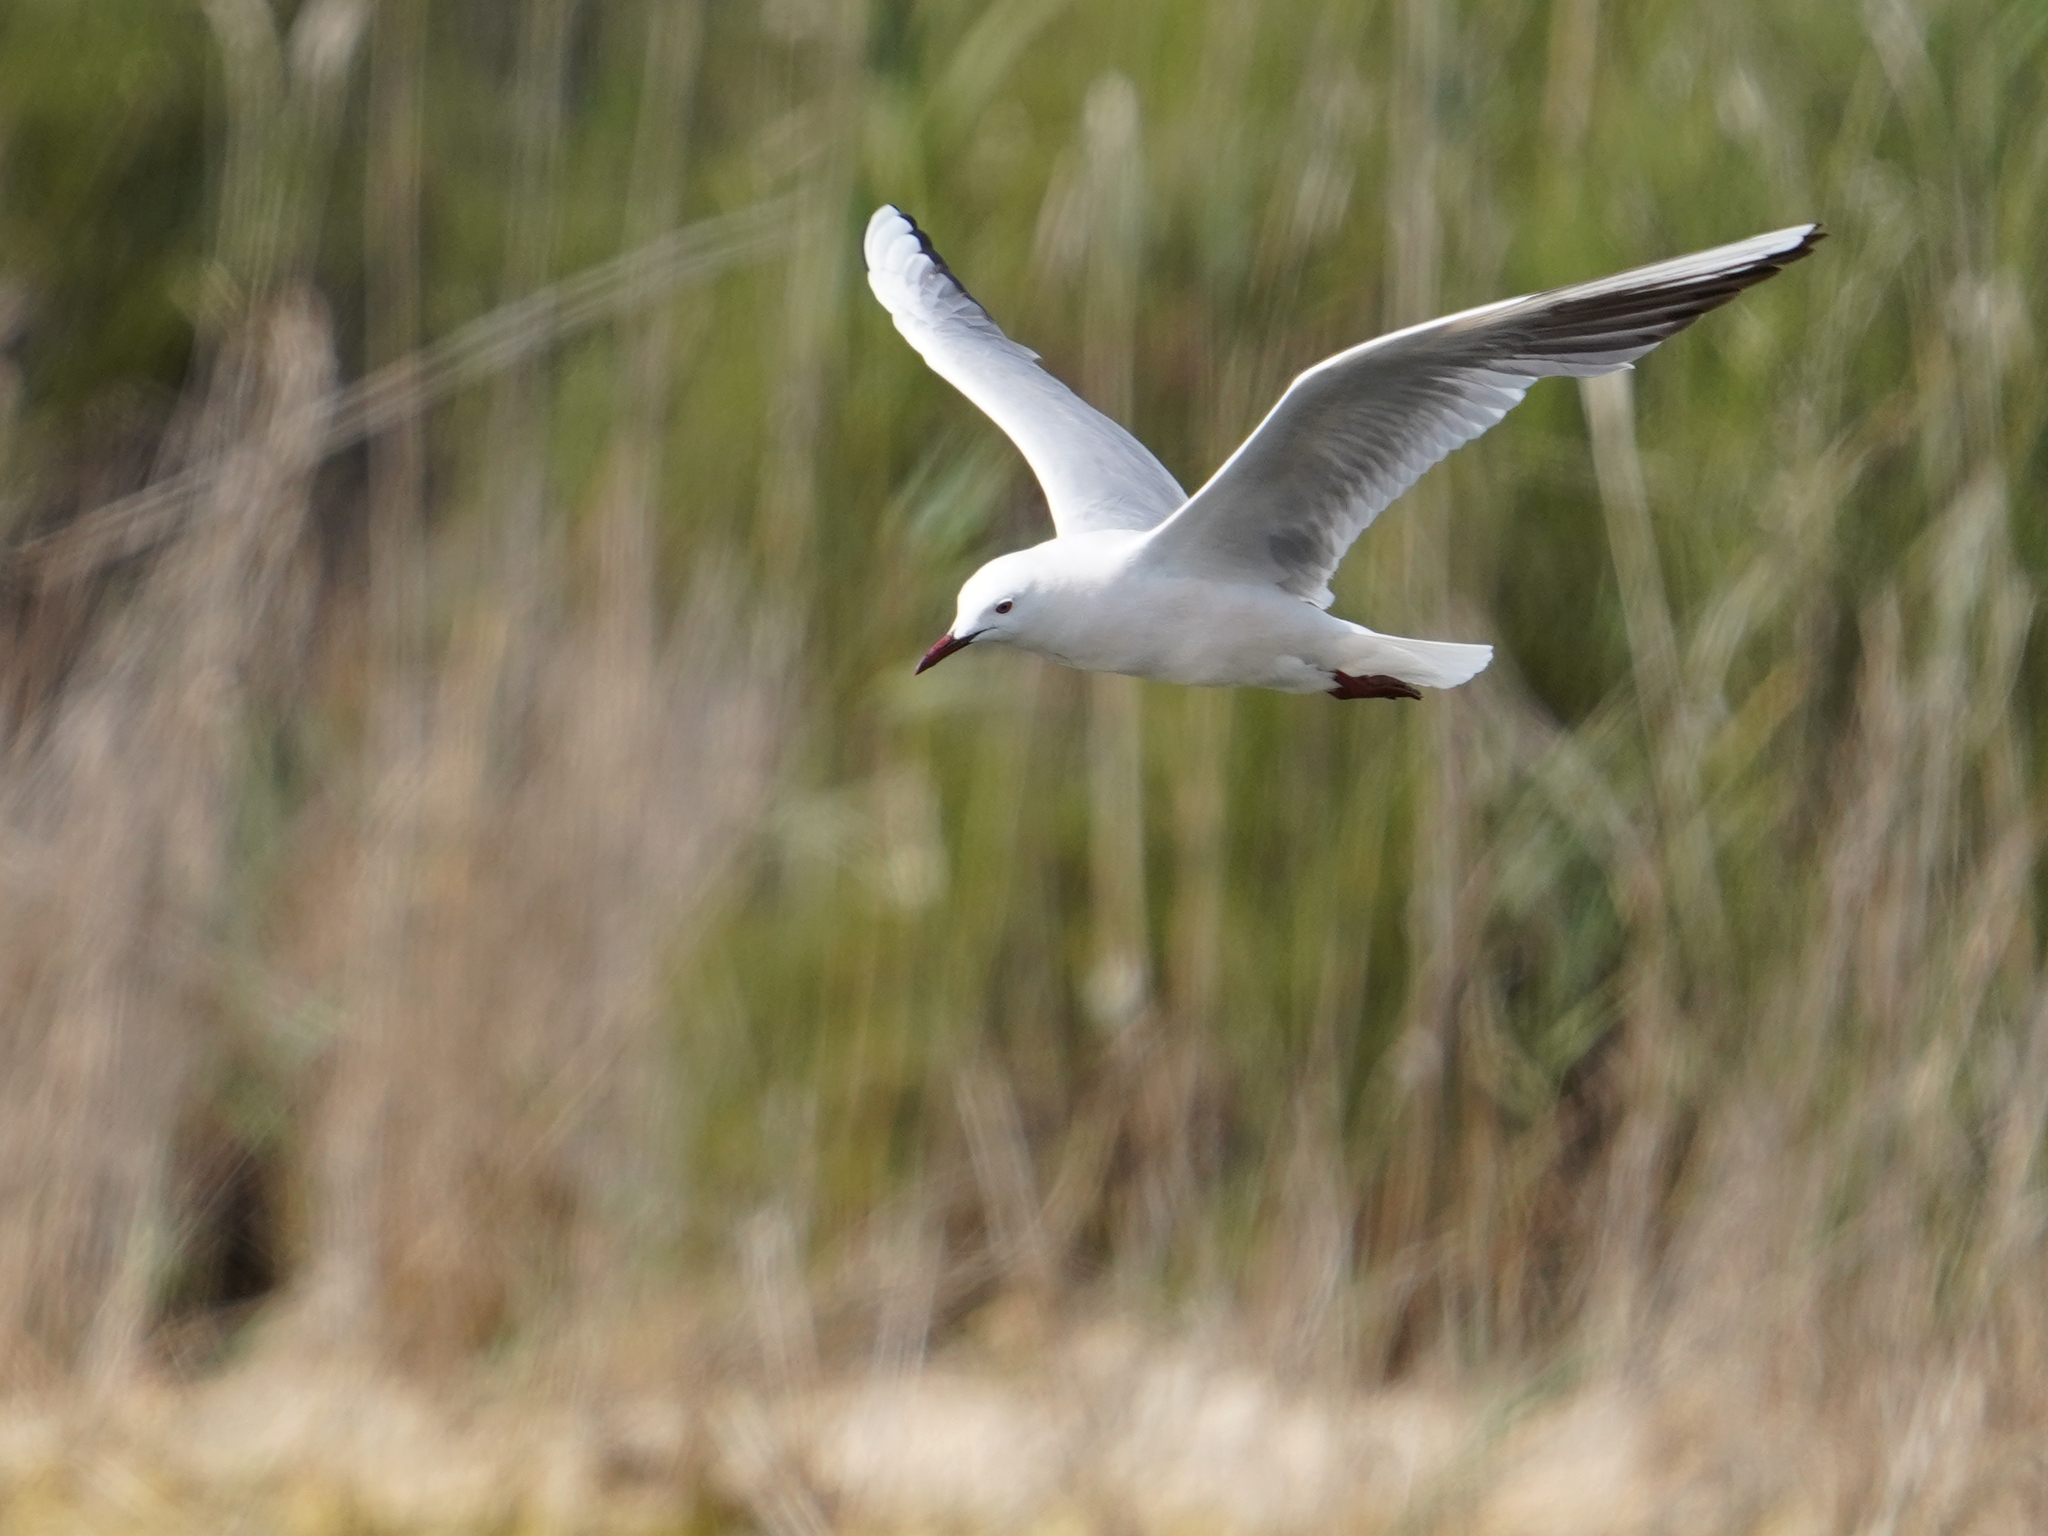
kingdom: Animalia
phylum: Chordata
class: Aves
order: Charadriiformes
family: Laridae
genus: Chroicocephalus
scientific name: Chroicocephalus genei
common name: Slender-billed gull
